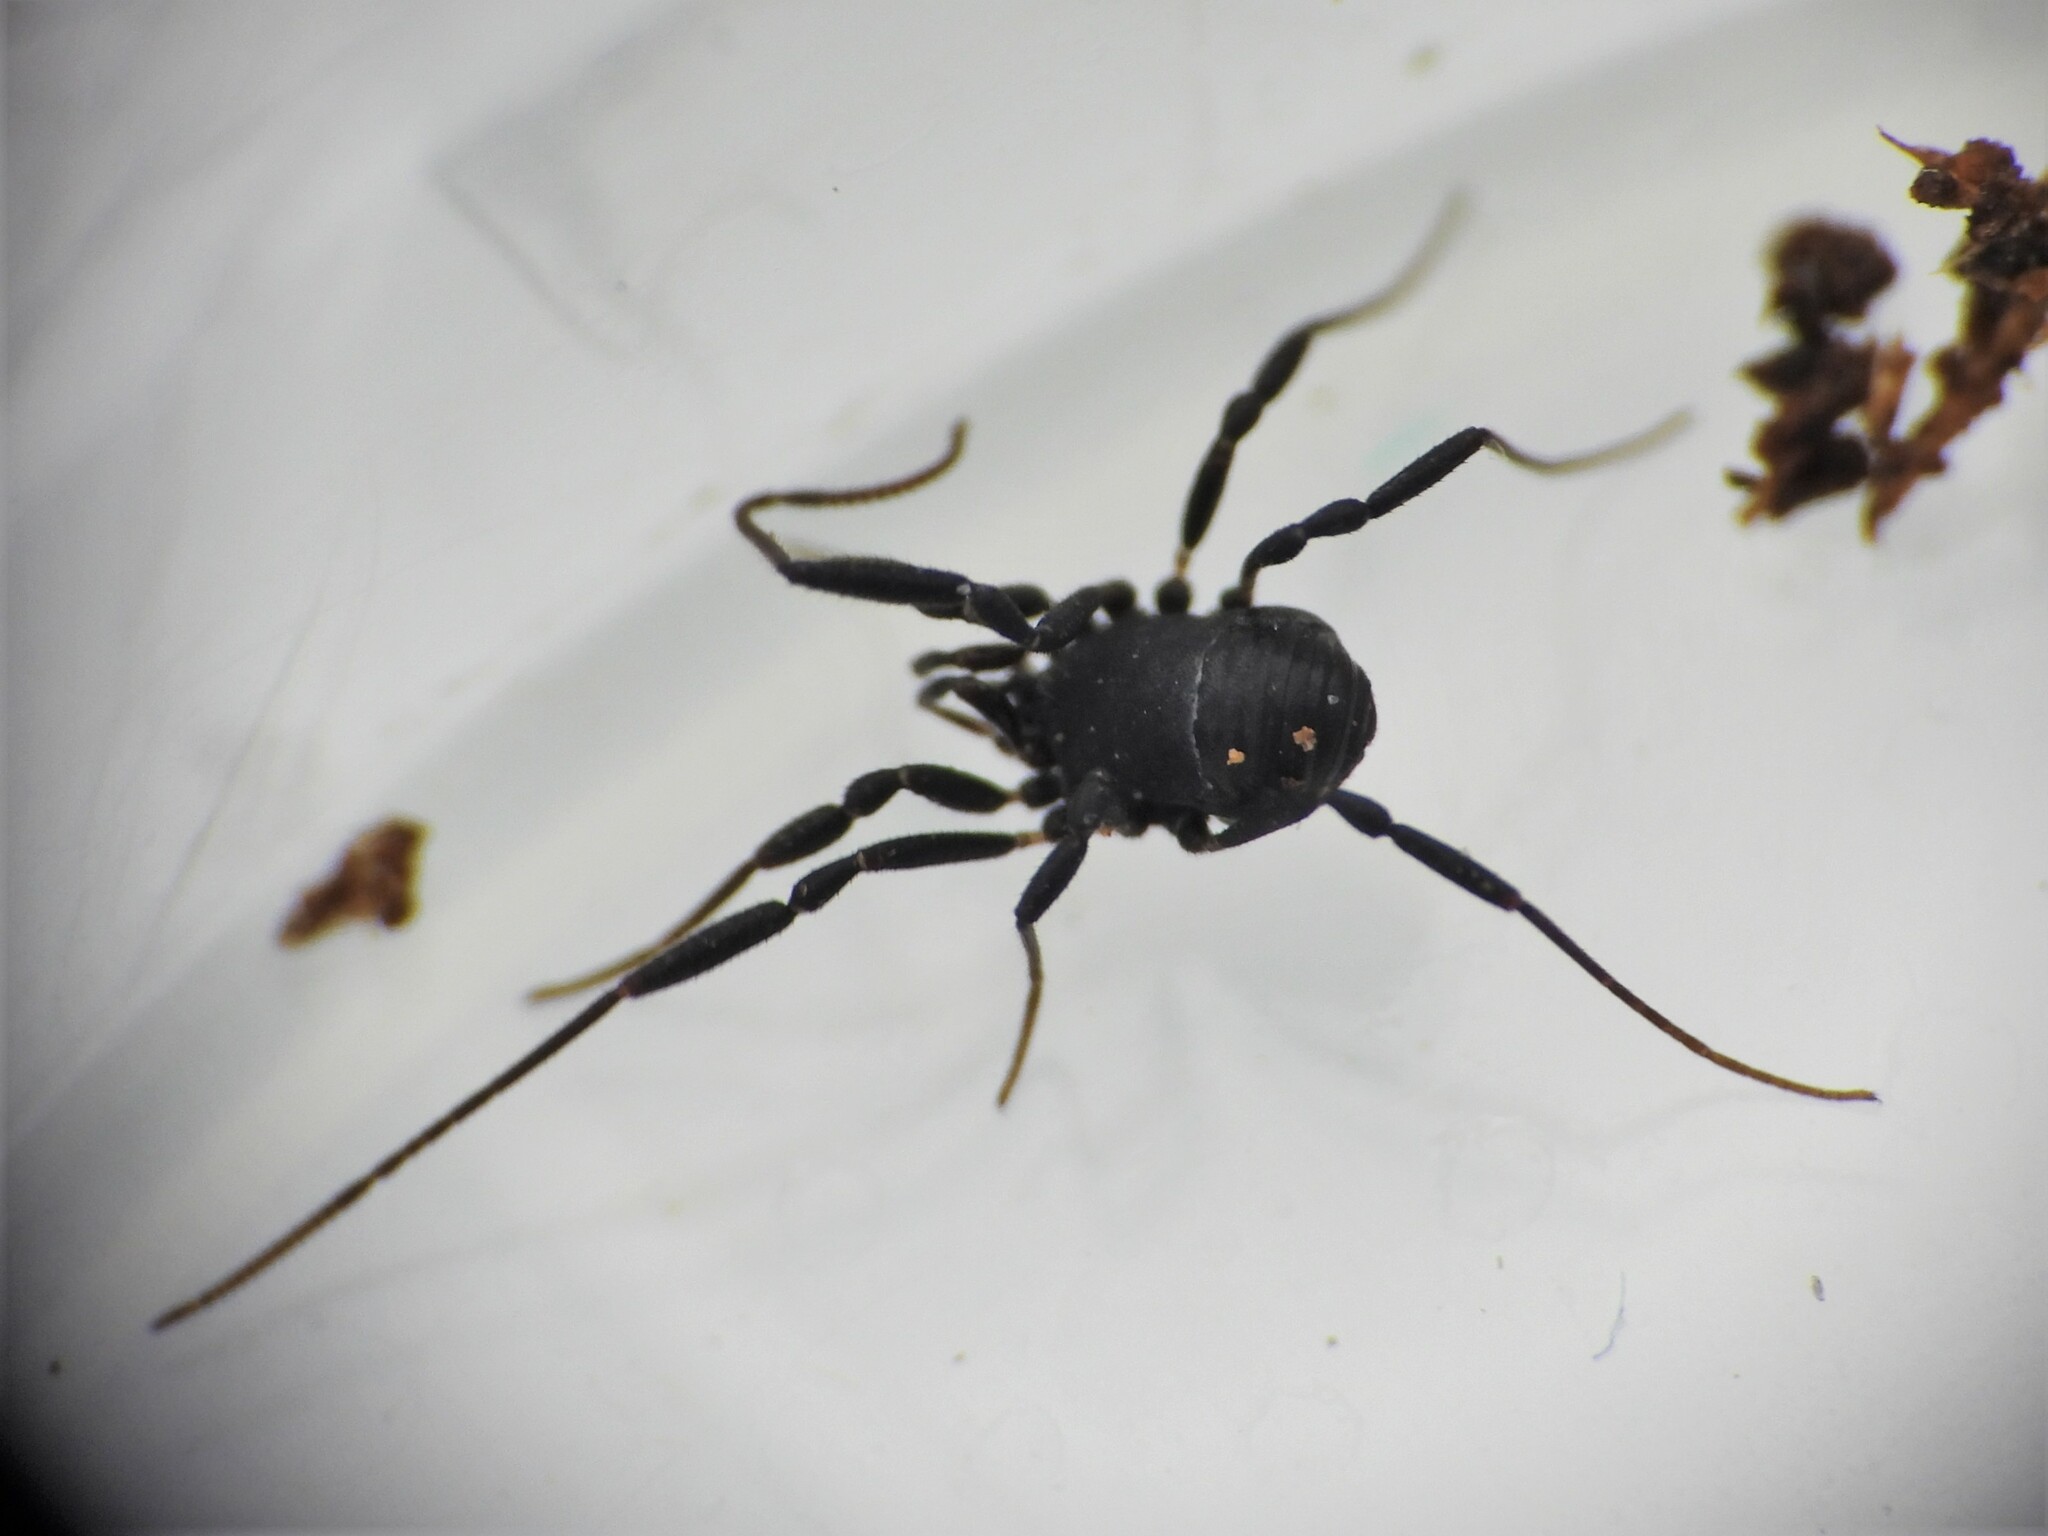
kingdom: Animalia
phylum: Arthropoda
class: Arachnida
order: Opiliones
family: Nemastomatidae
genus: Nemastoma
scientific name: Nemastoma dentigerum
